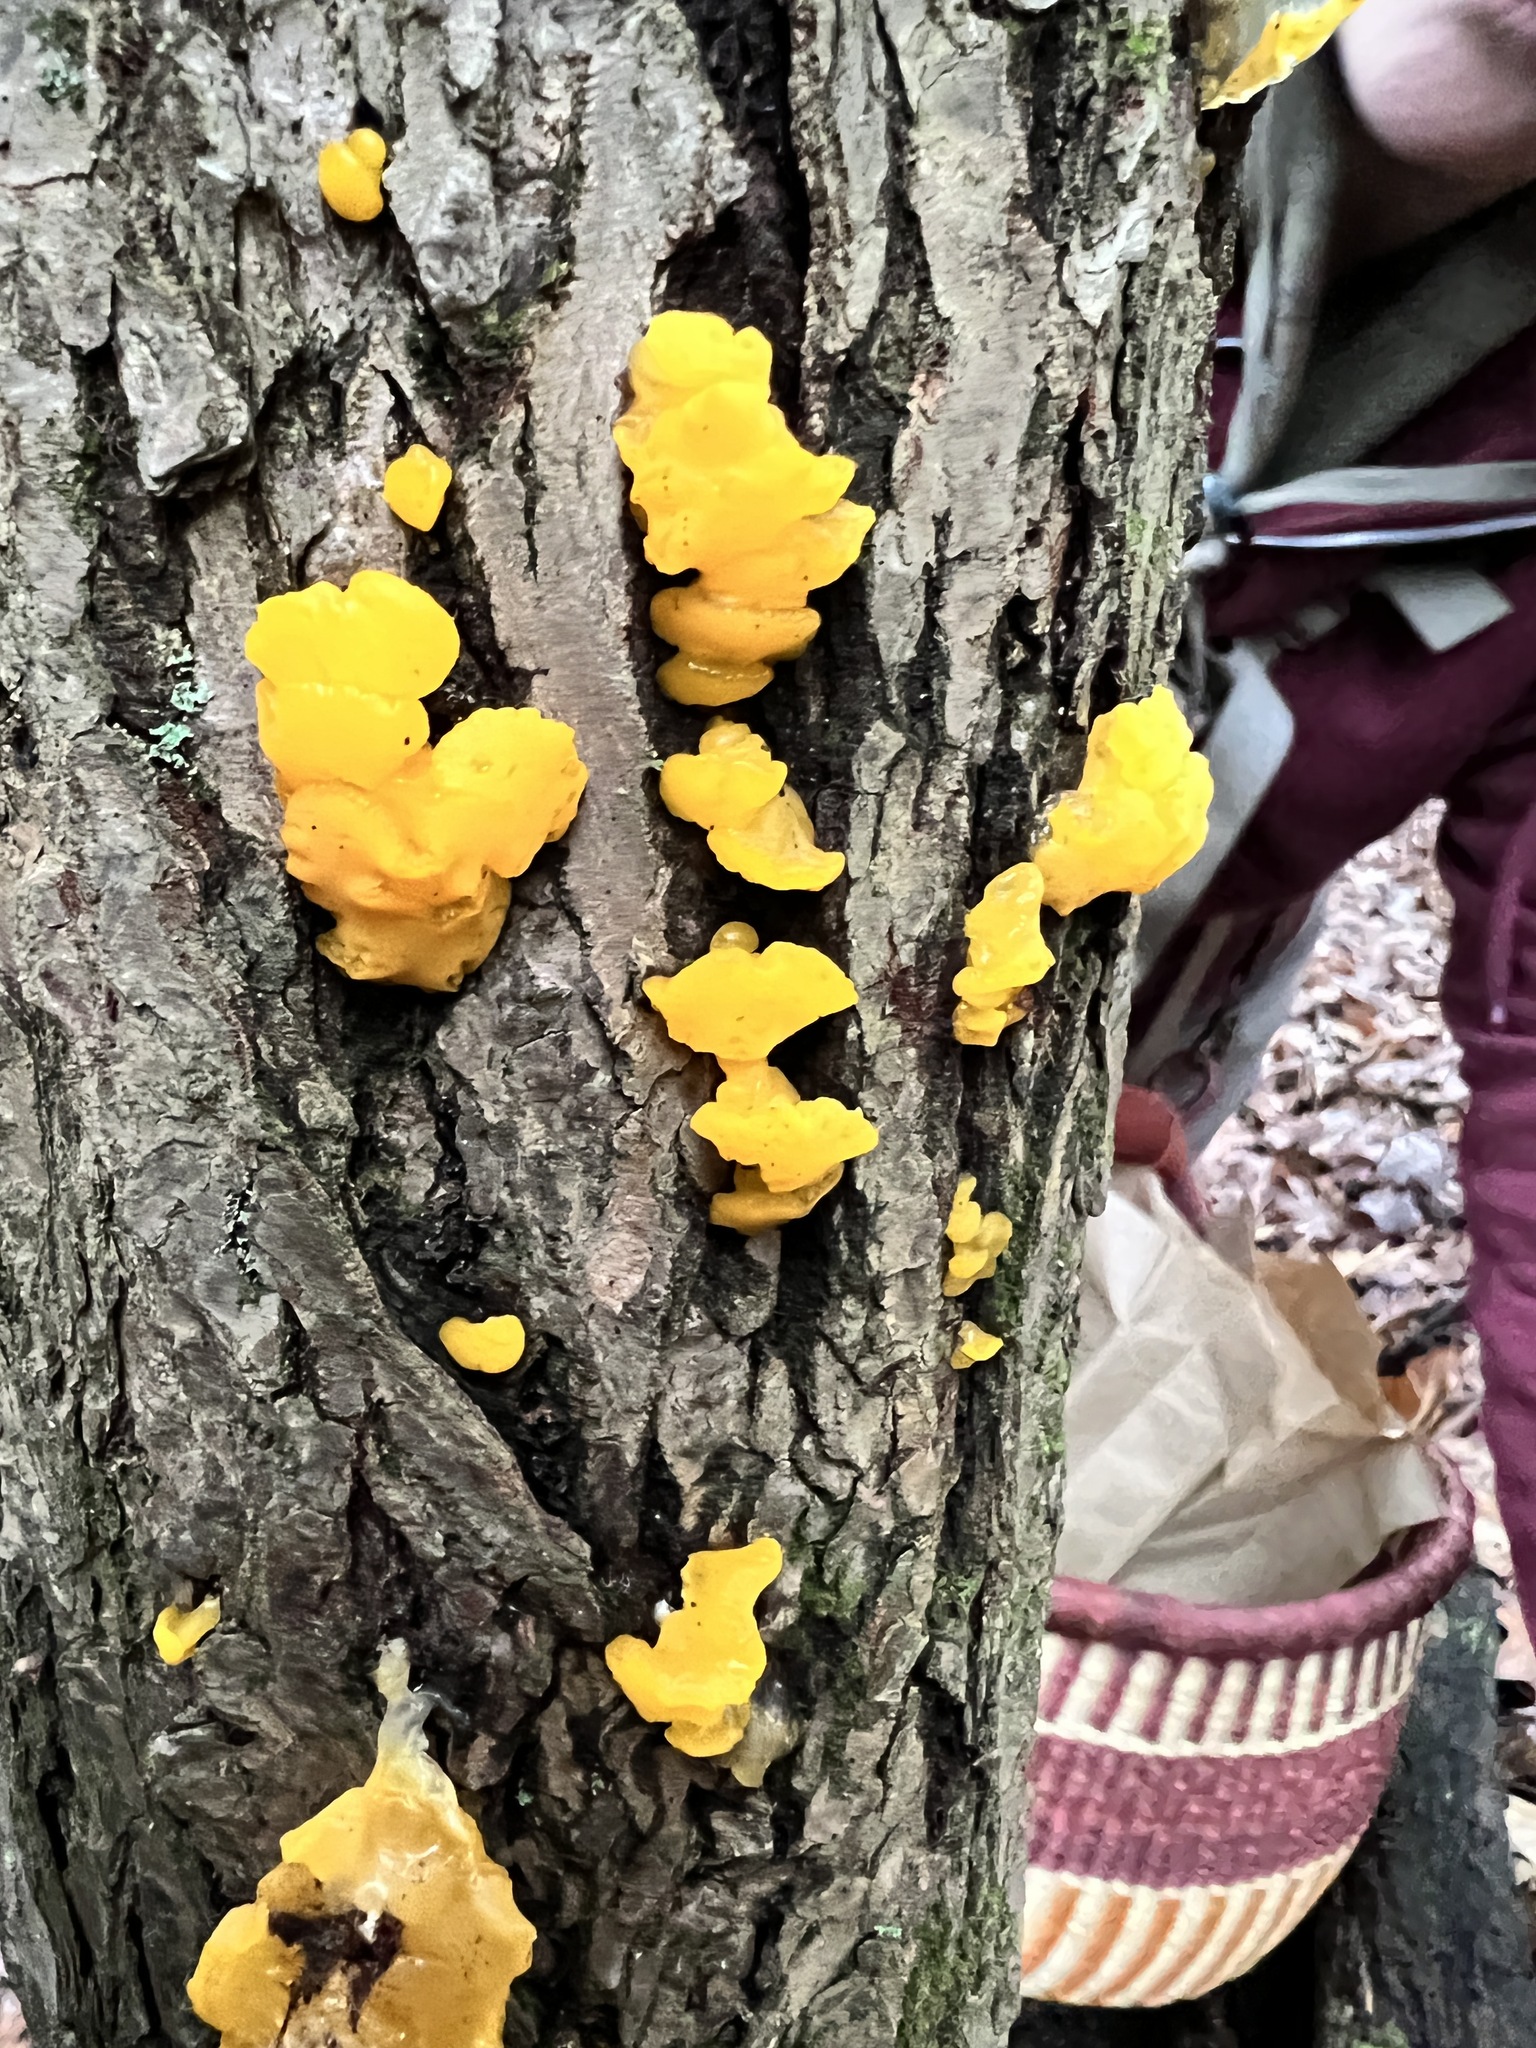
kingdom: Fungi
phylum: Basidiomycota
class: Dacrymycetes
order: Dacrymycetales
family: Dacrymycetaceae
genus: Dacrymyces
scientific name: Dacrymyces chrysospermus
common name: Orange jelly spot
